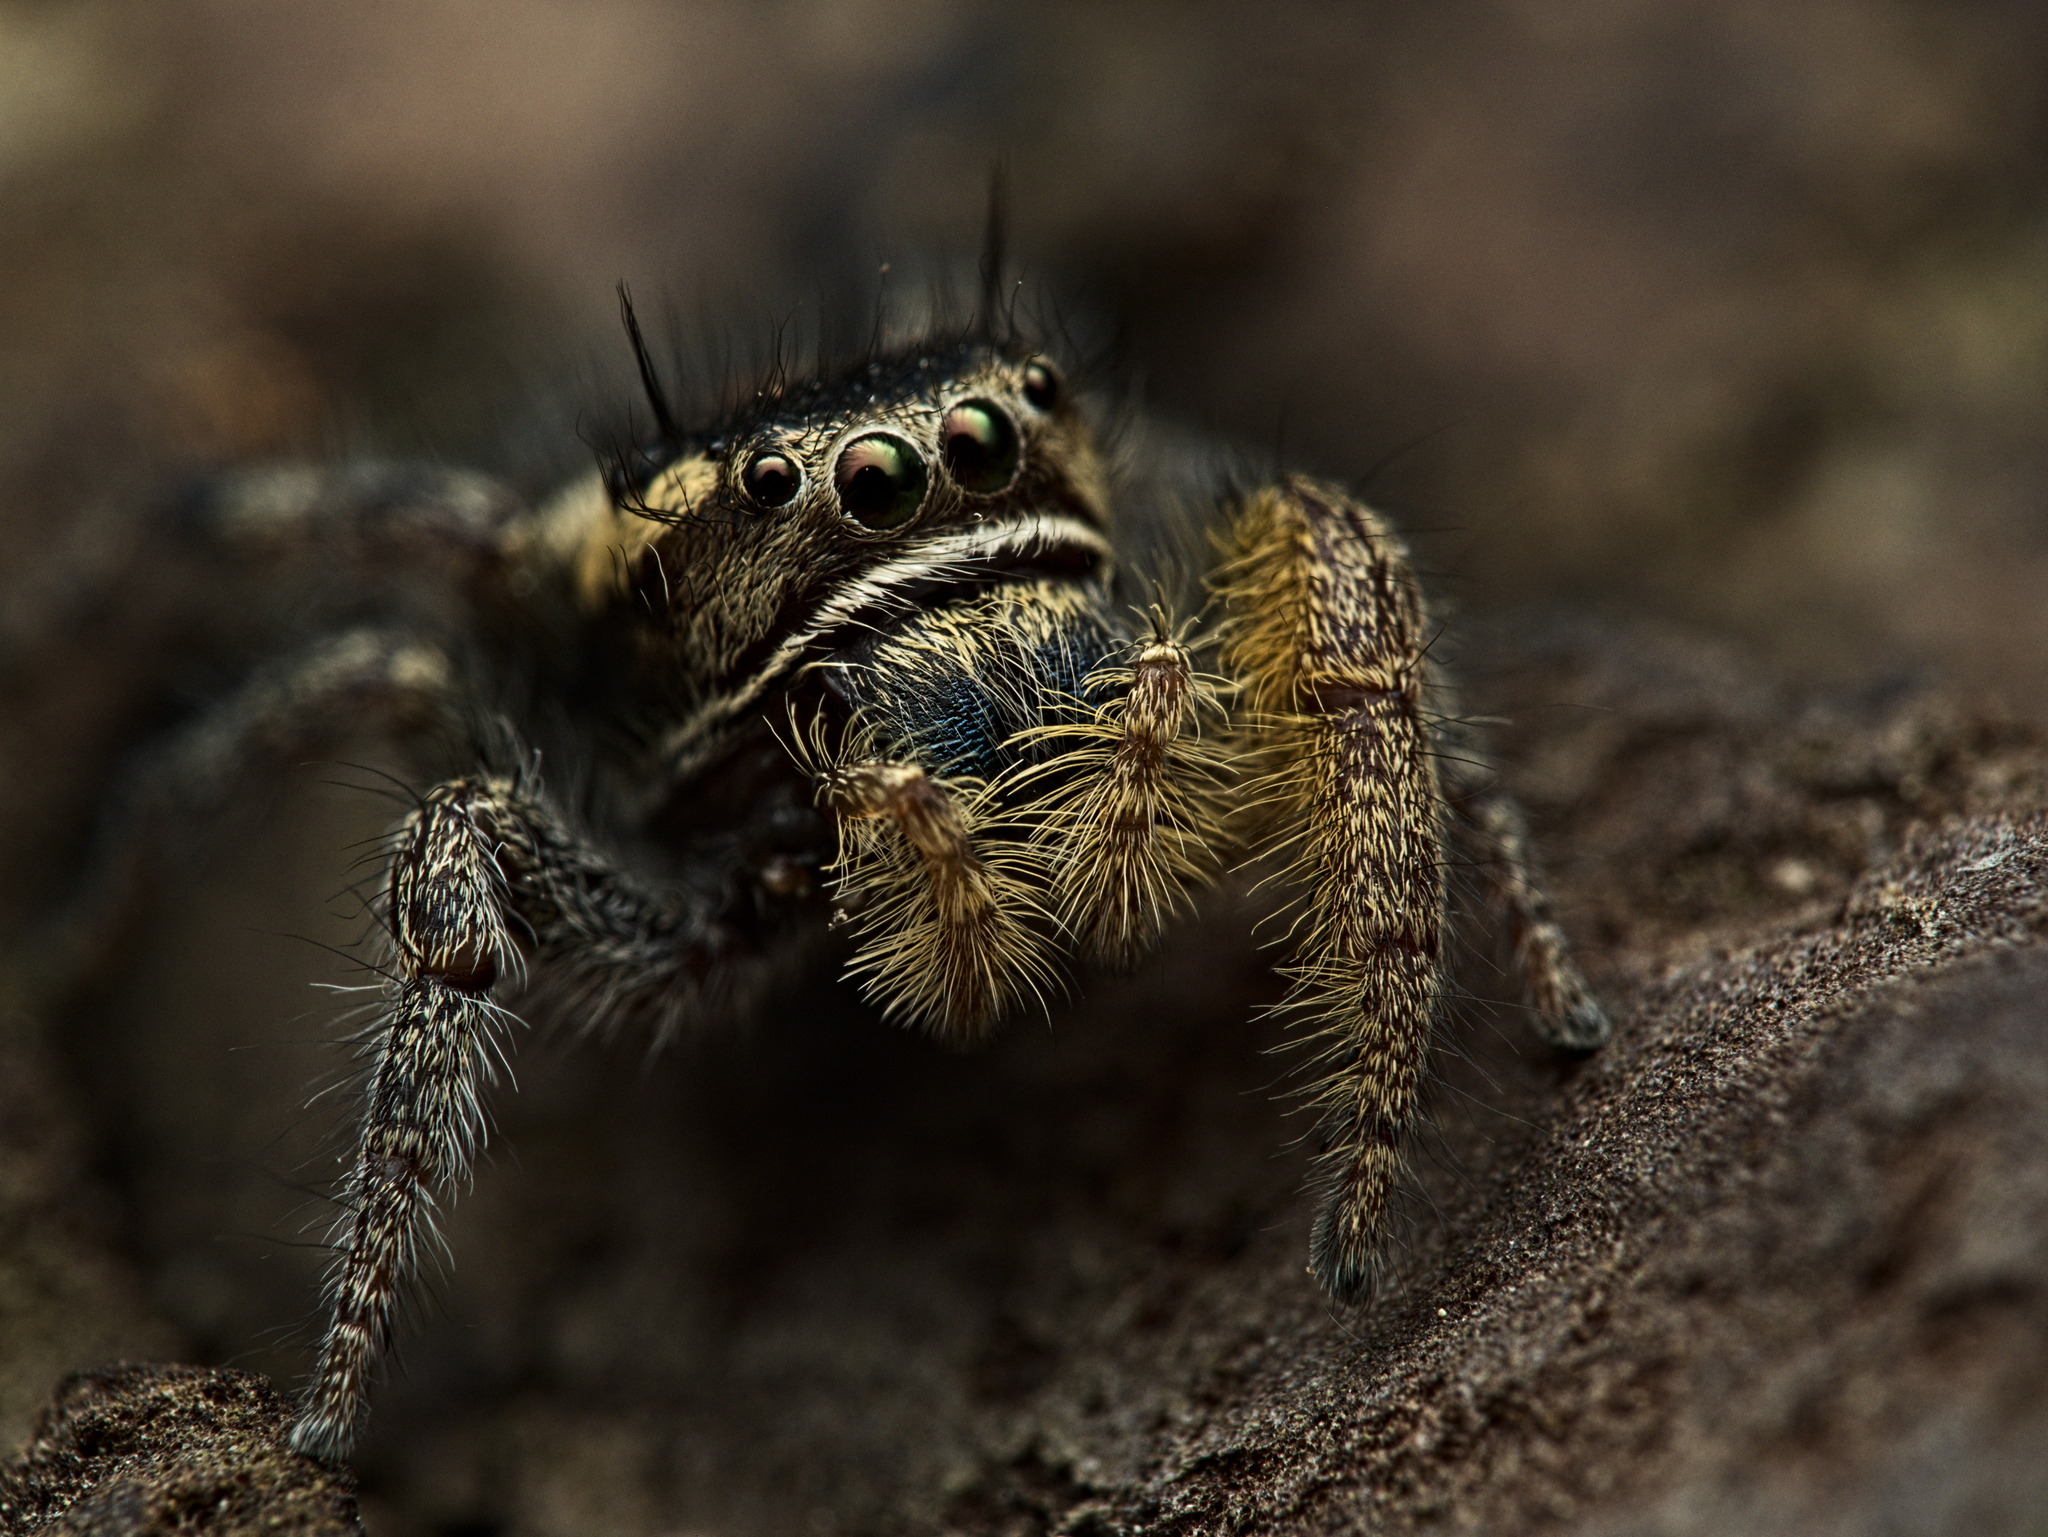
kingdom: Animalia
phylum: Arthropoda
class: Arachnida
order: Araneae
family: Salticidae
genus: Phidippus
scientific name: Phidippus cruentus
